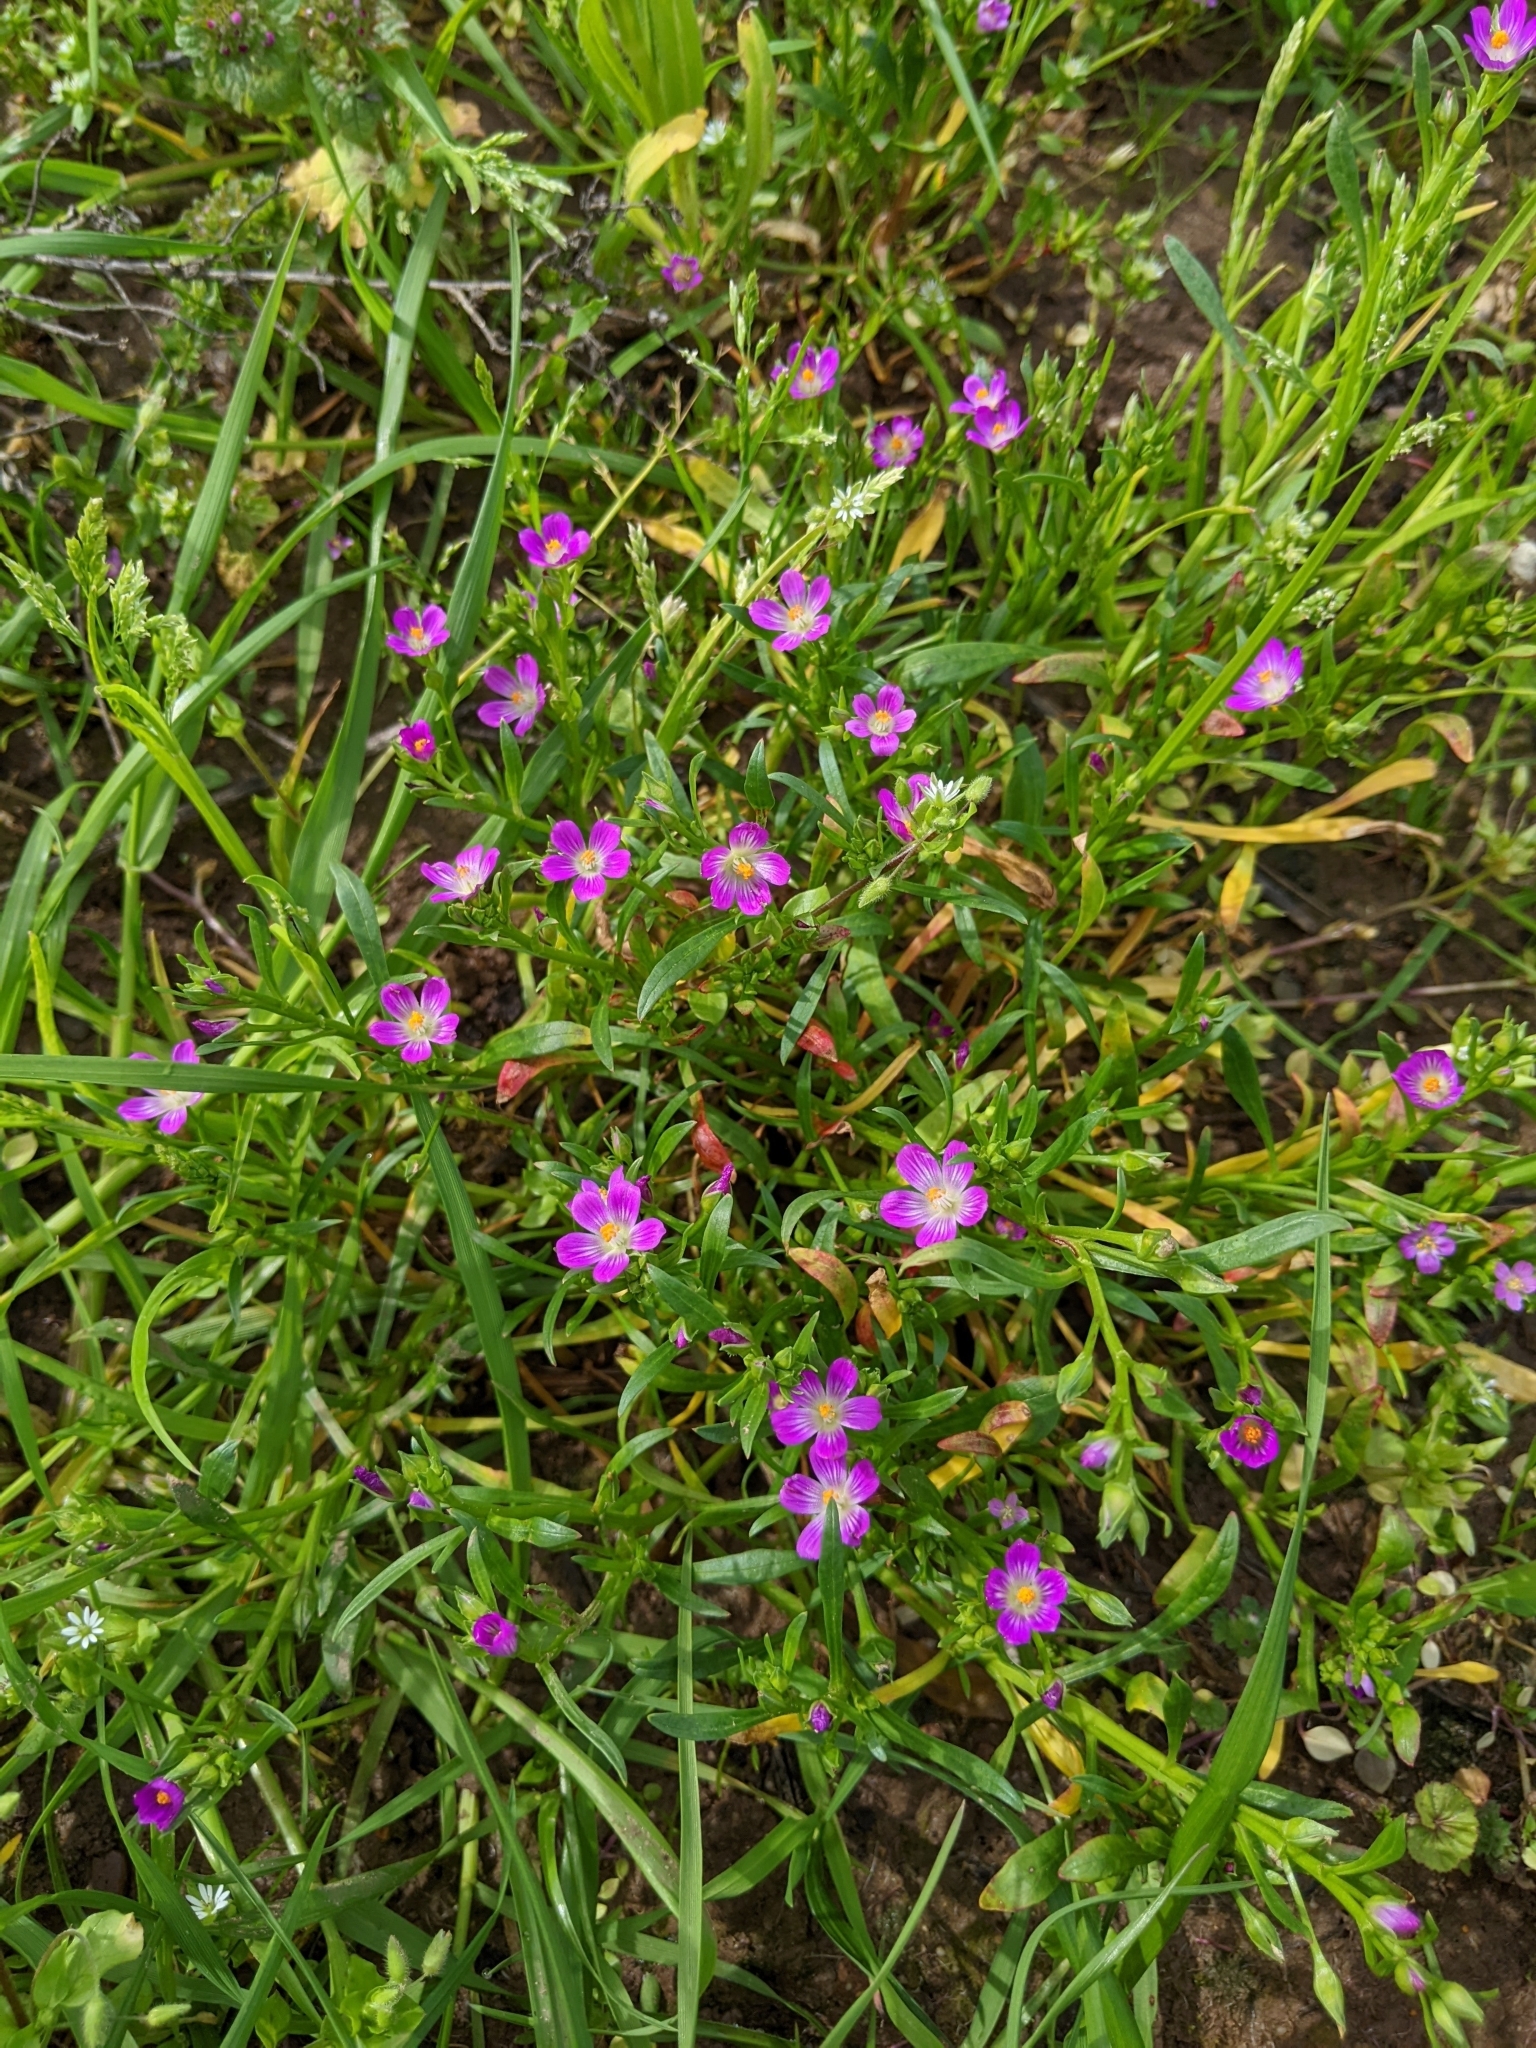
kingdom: Plantae
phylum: Tracheophyta
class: Magnoliopsida
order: Caryophyllales
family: Montiaceae
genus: Calandrinia
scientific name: Calandrinia menziesii
